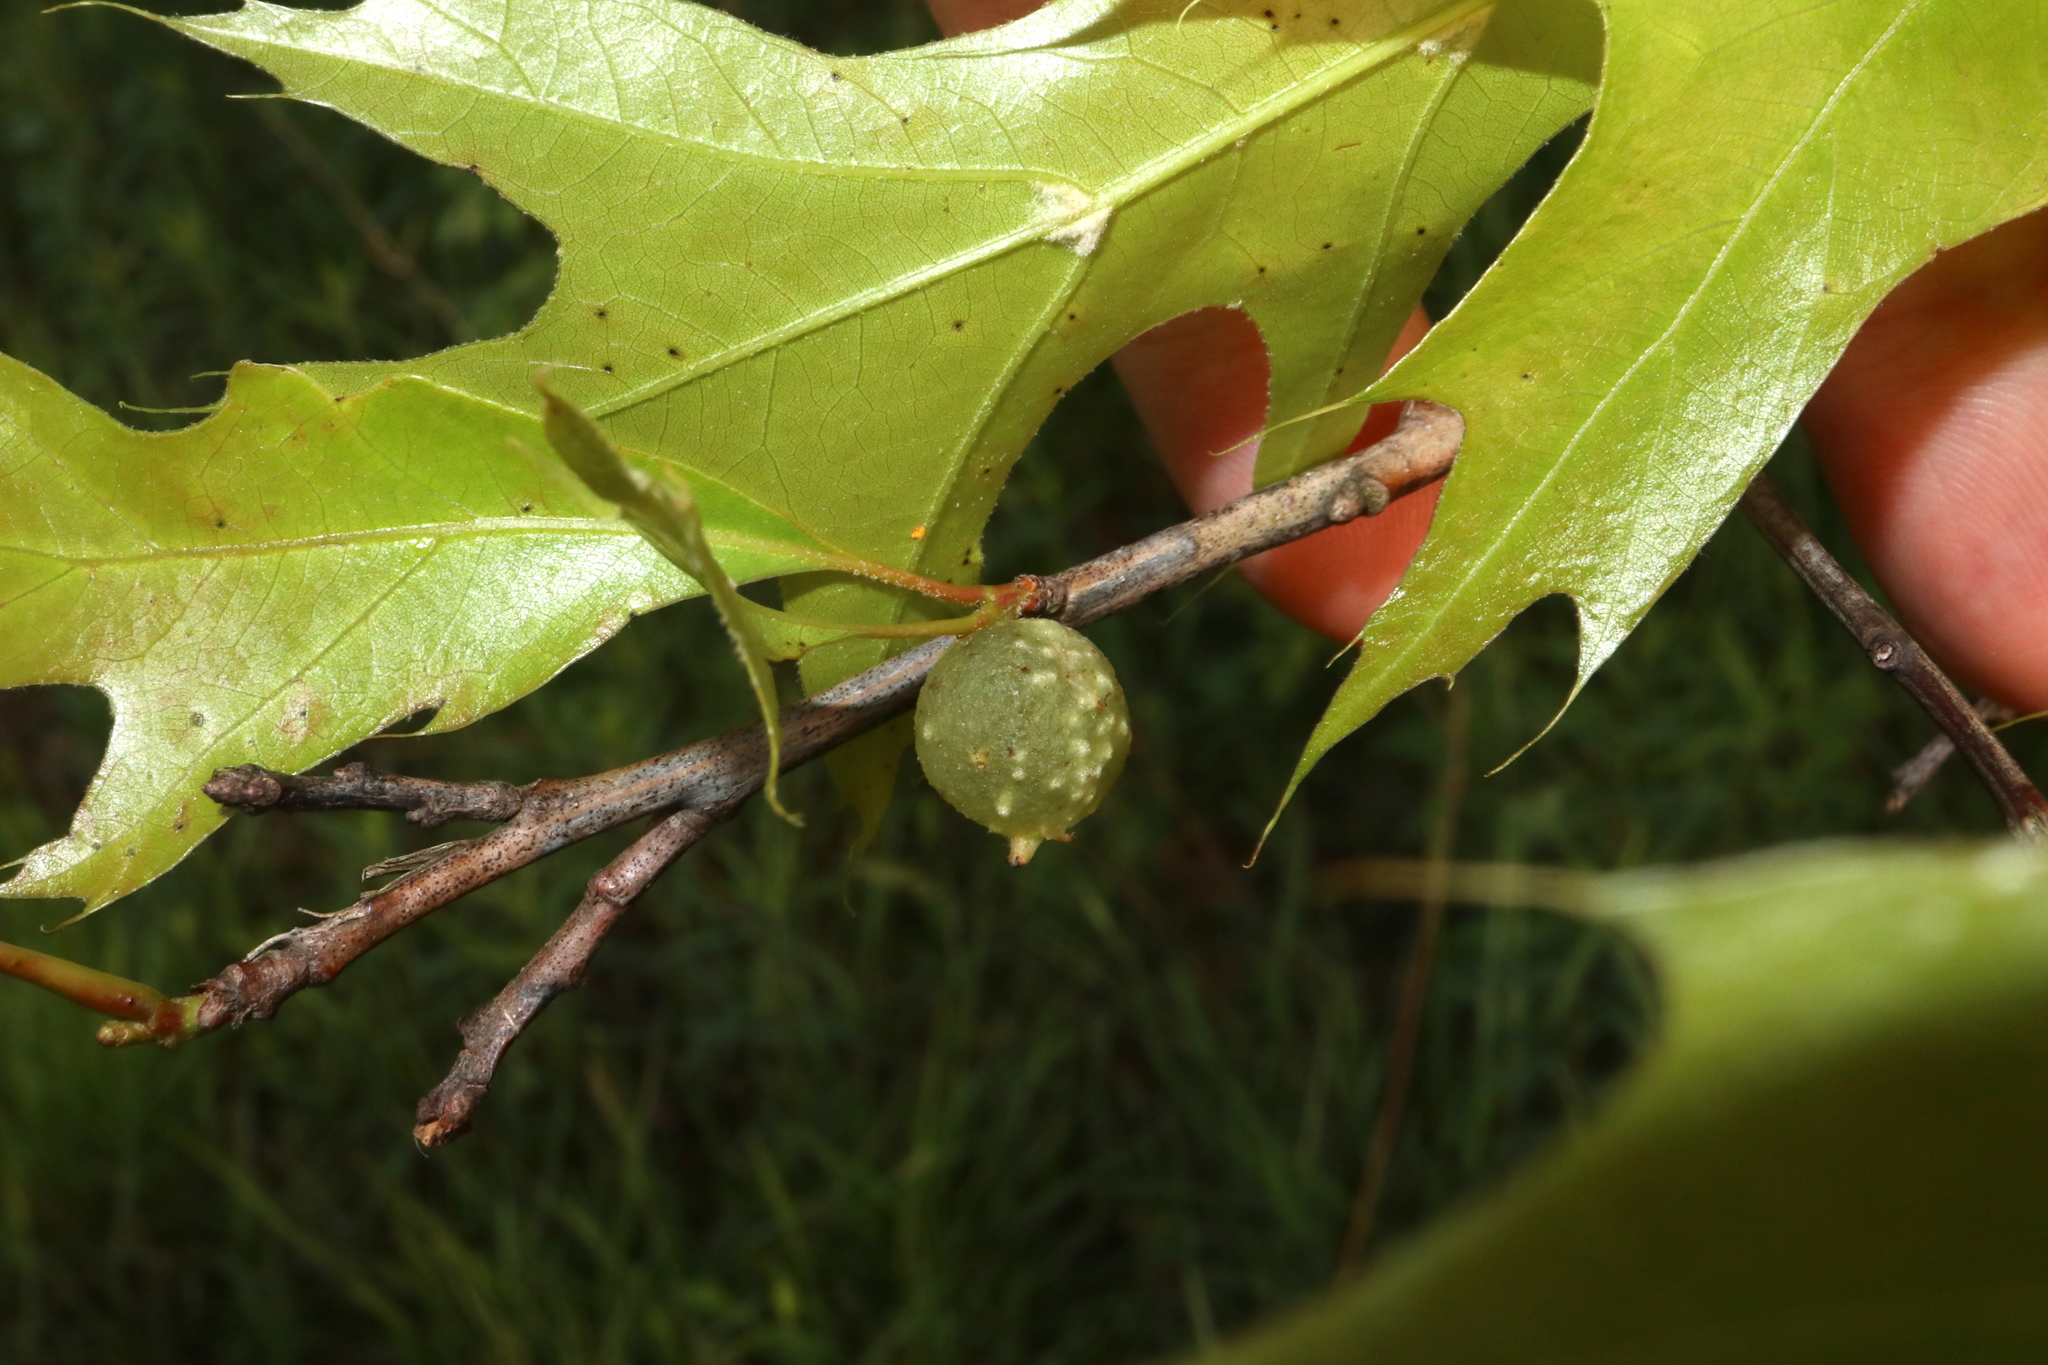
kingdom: Animalia
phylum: Arthropoda
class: Insecta
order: Hymenoptera
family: Cynipidae
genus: Dryocosmus
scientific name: Dryocosmus quercuspalustris
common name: Succulent oak gall wasp
